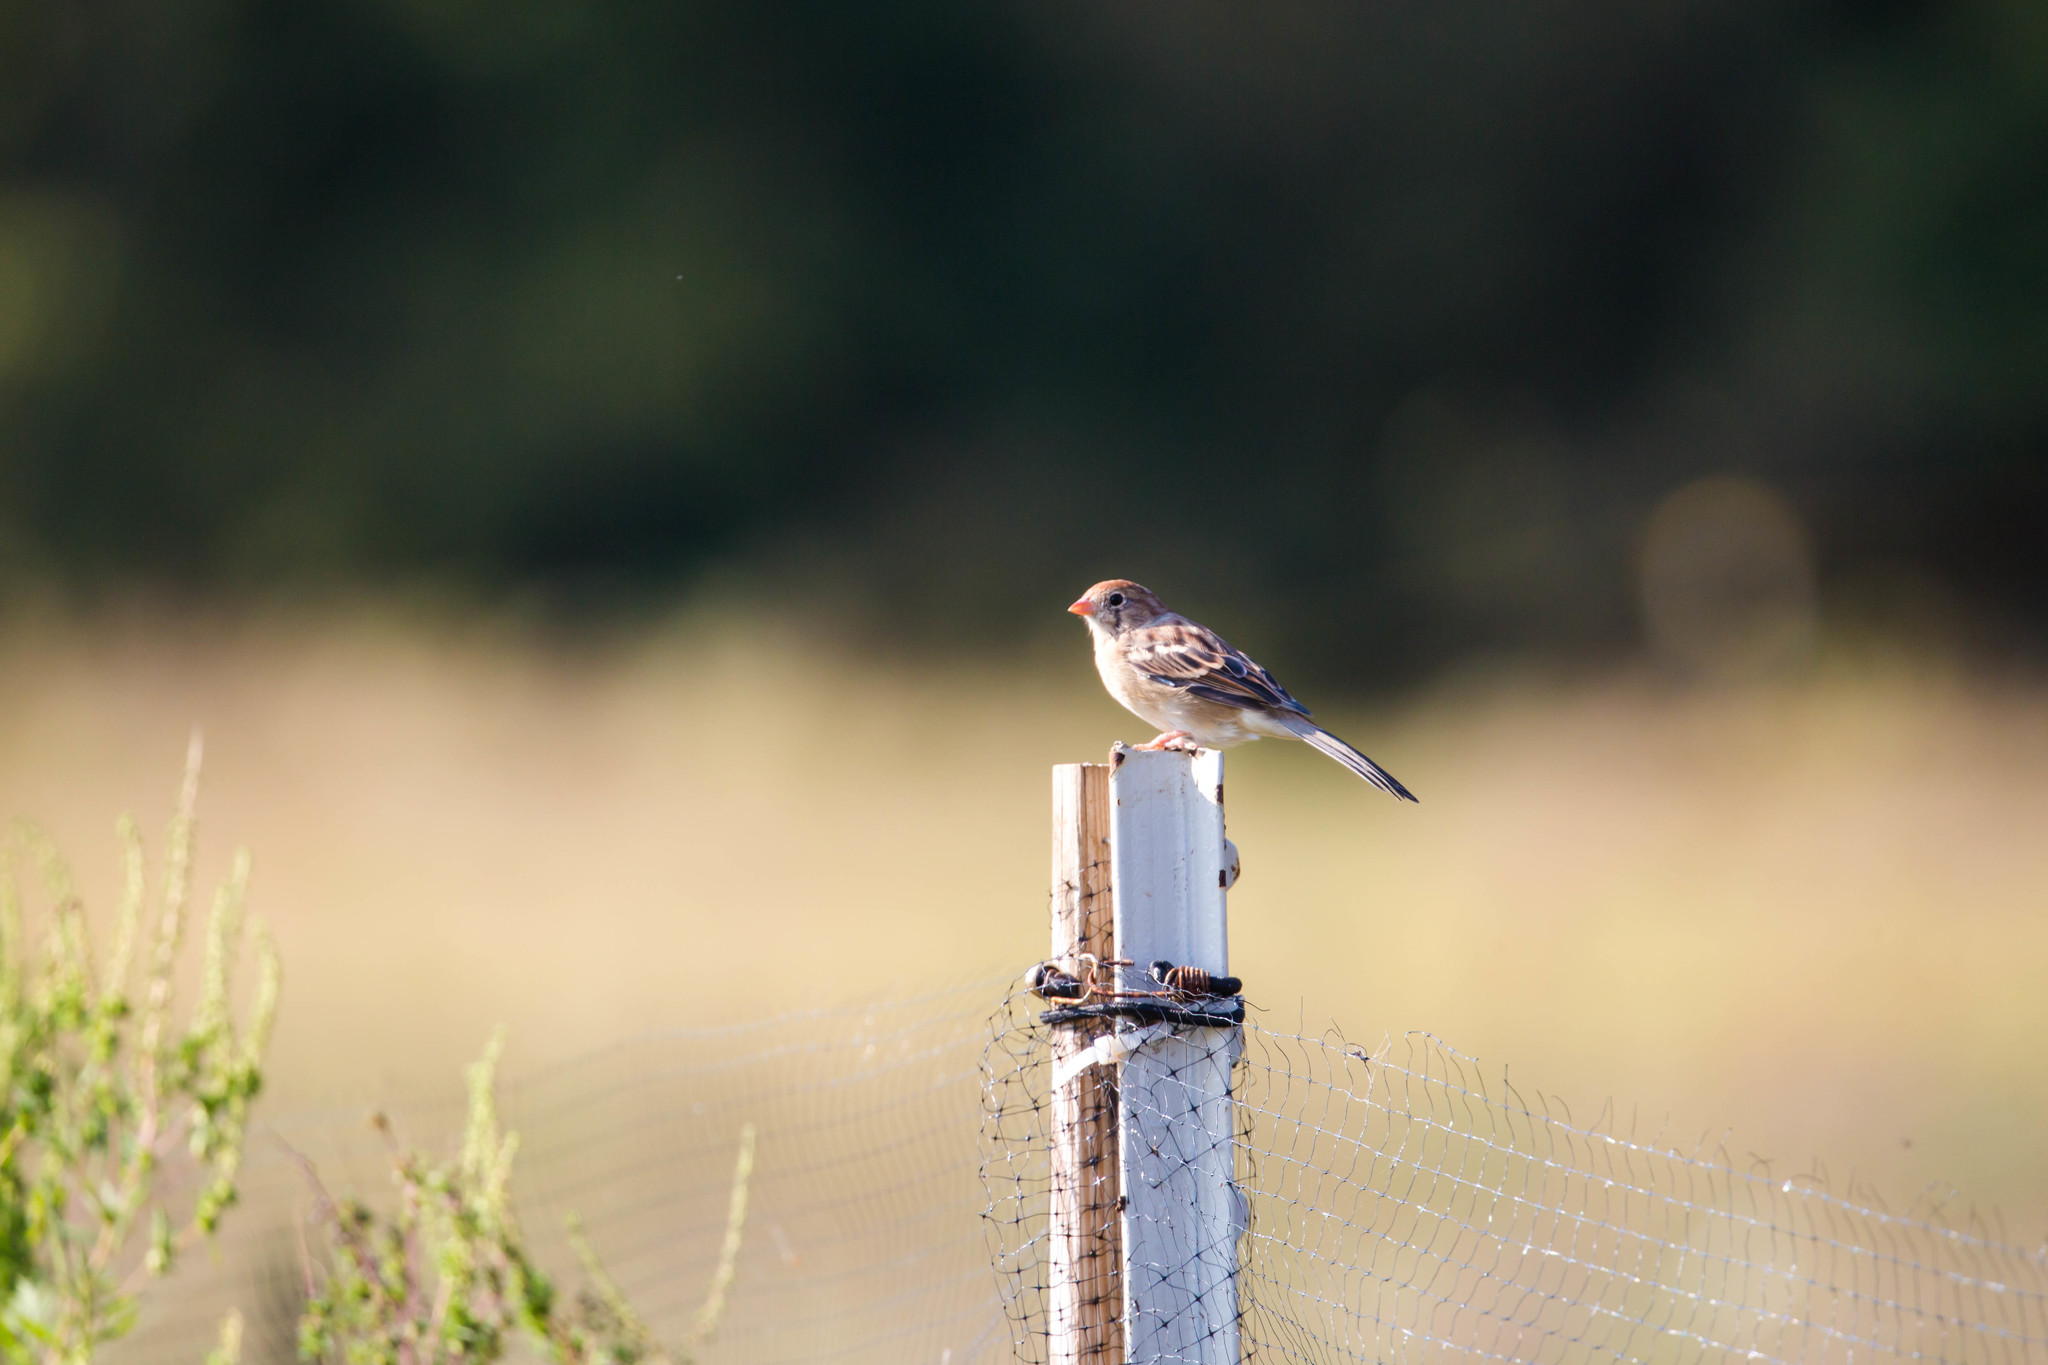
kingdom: Animalia
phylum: Chordata
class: Aves
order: Passeriformes
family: Passerellidae
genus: Spizella
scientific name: Spizella pusilla
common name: Field sparrow
